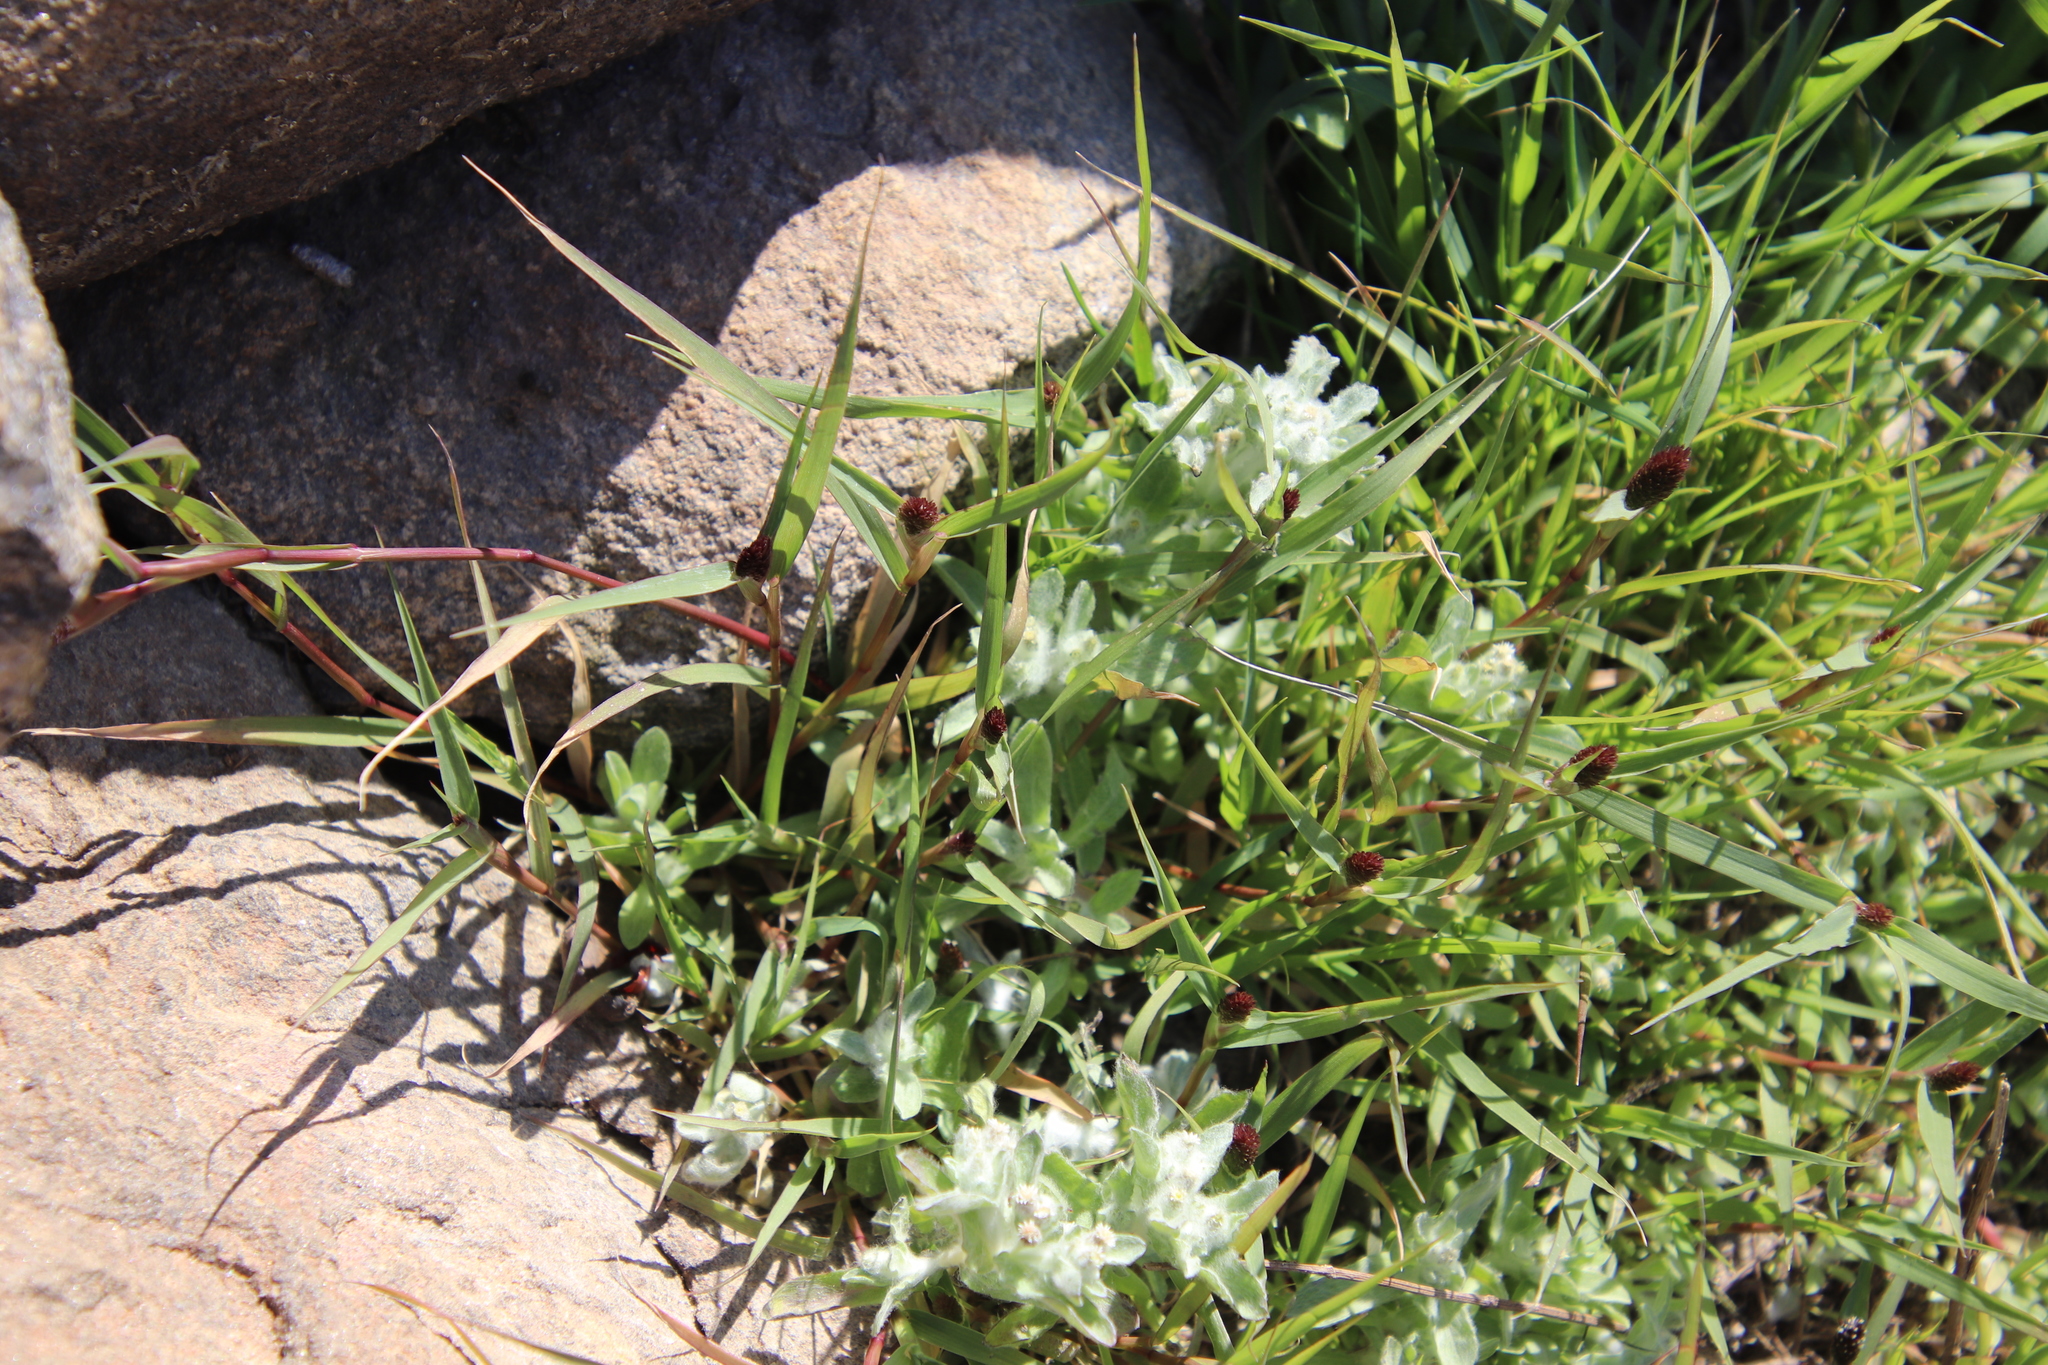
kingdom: Plantae
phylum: Tracheophyta
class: Liliopsida
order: Poales
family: Poaceae
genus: Sporobolus
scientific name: Sporobolus schoenoides
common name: Rush-like timothy
